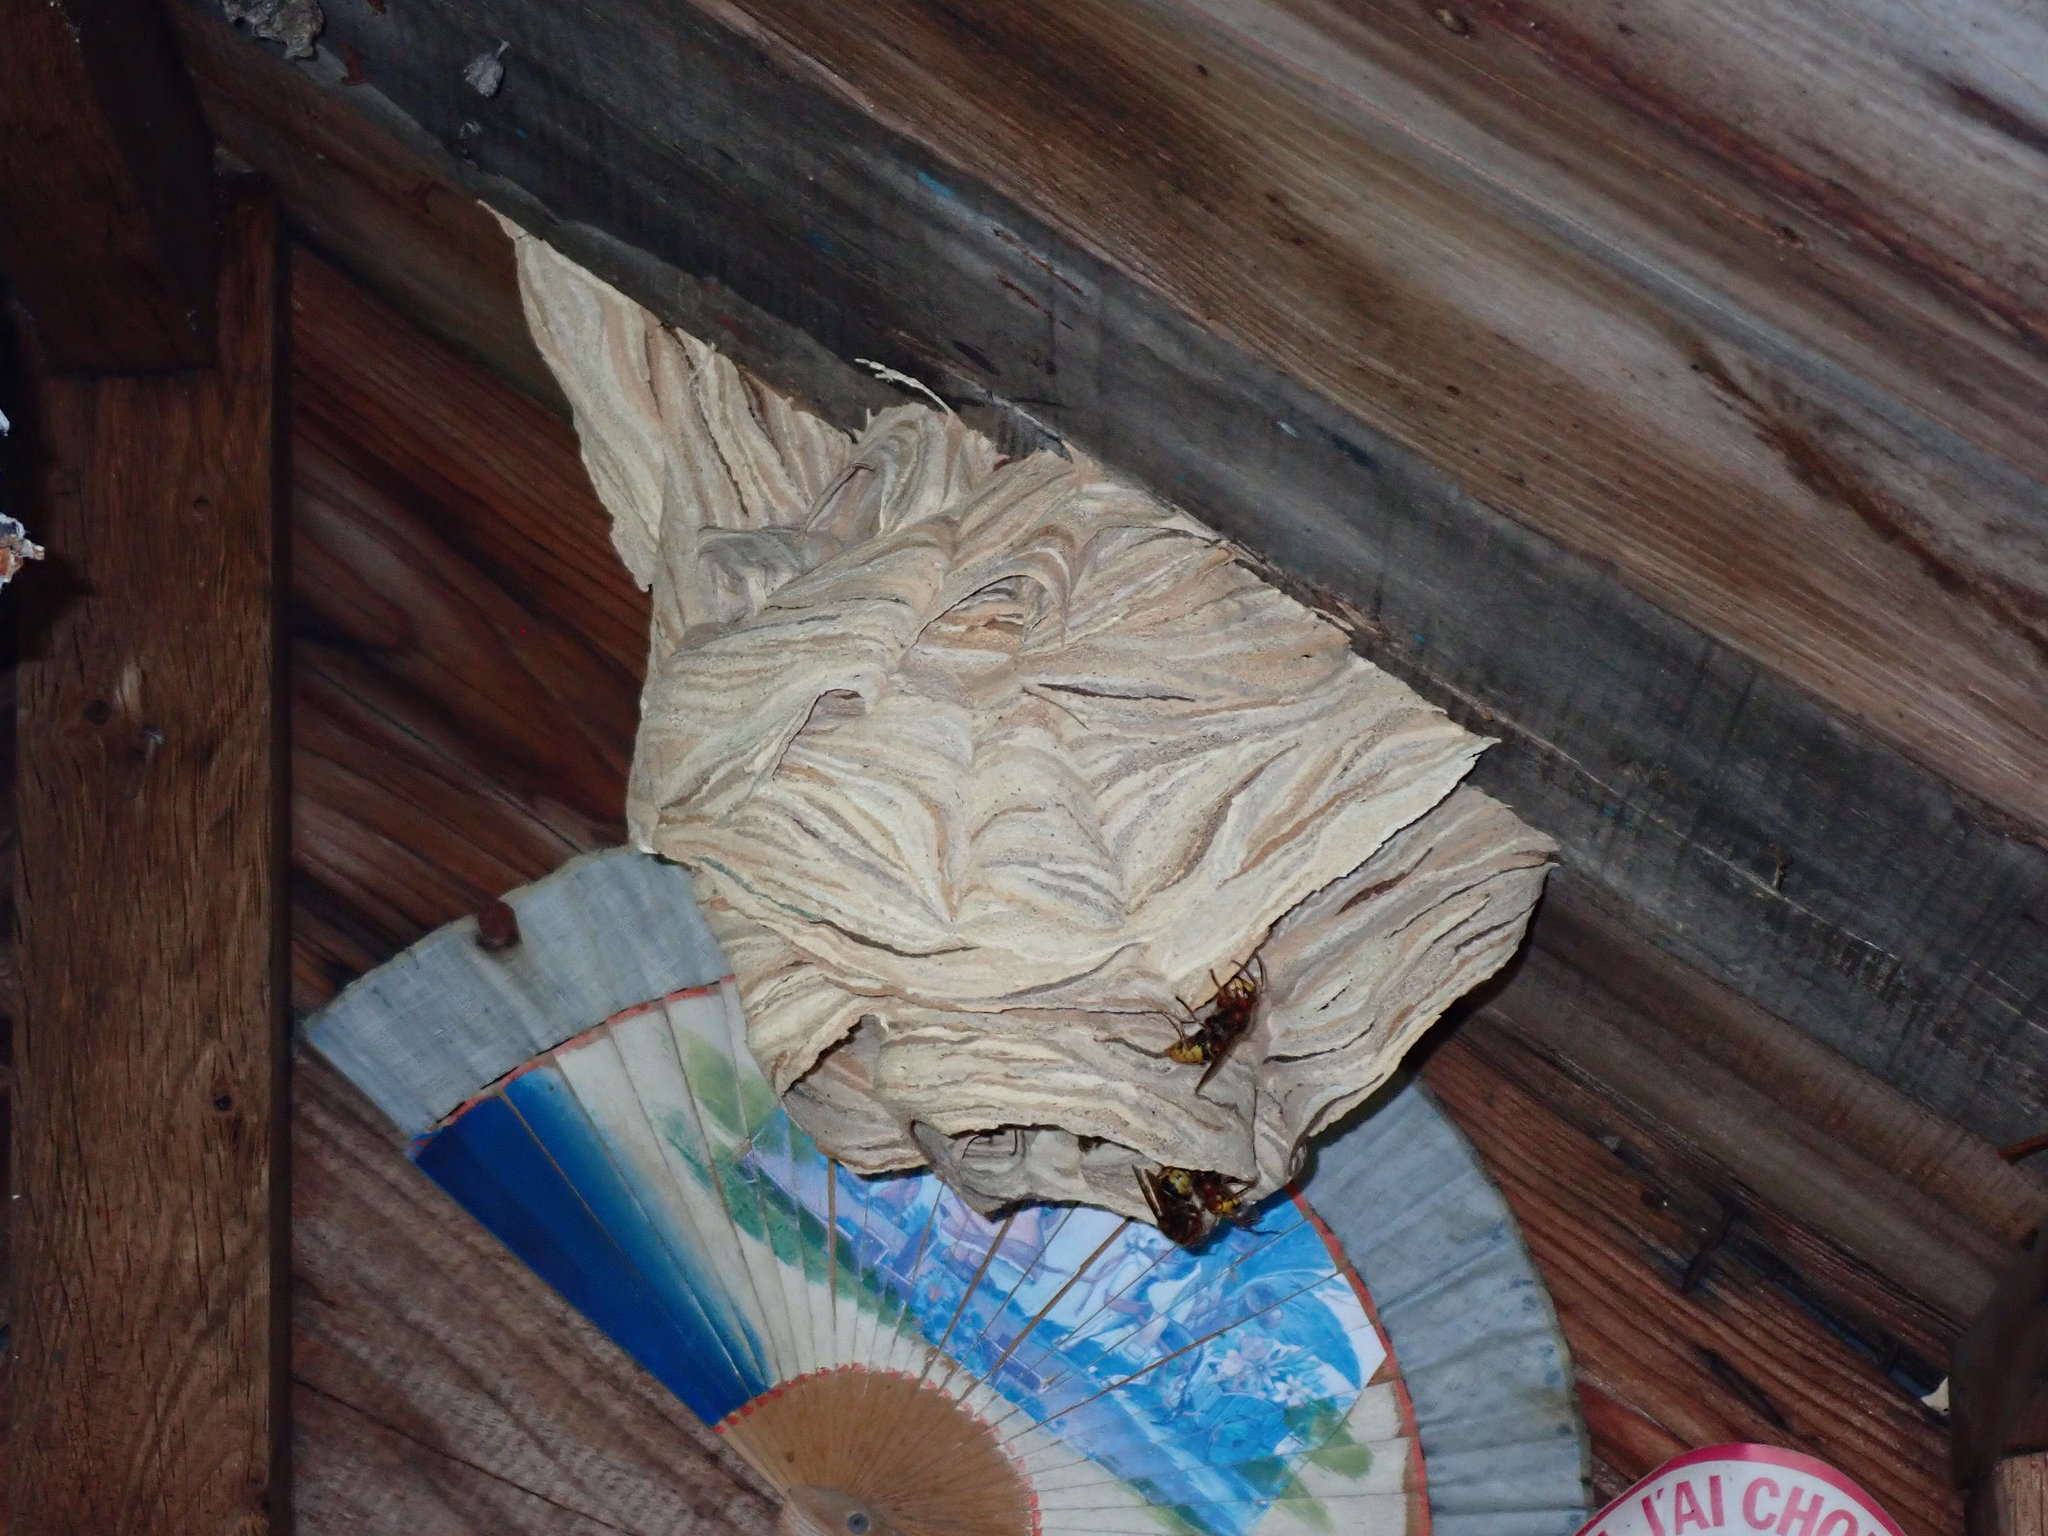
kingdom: Animalia
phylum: Arthropoda
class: Insecta
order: Hymenoptera
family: Vespidae
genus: Vespa
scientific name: Vespa crabro
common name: Hornet
